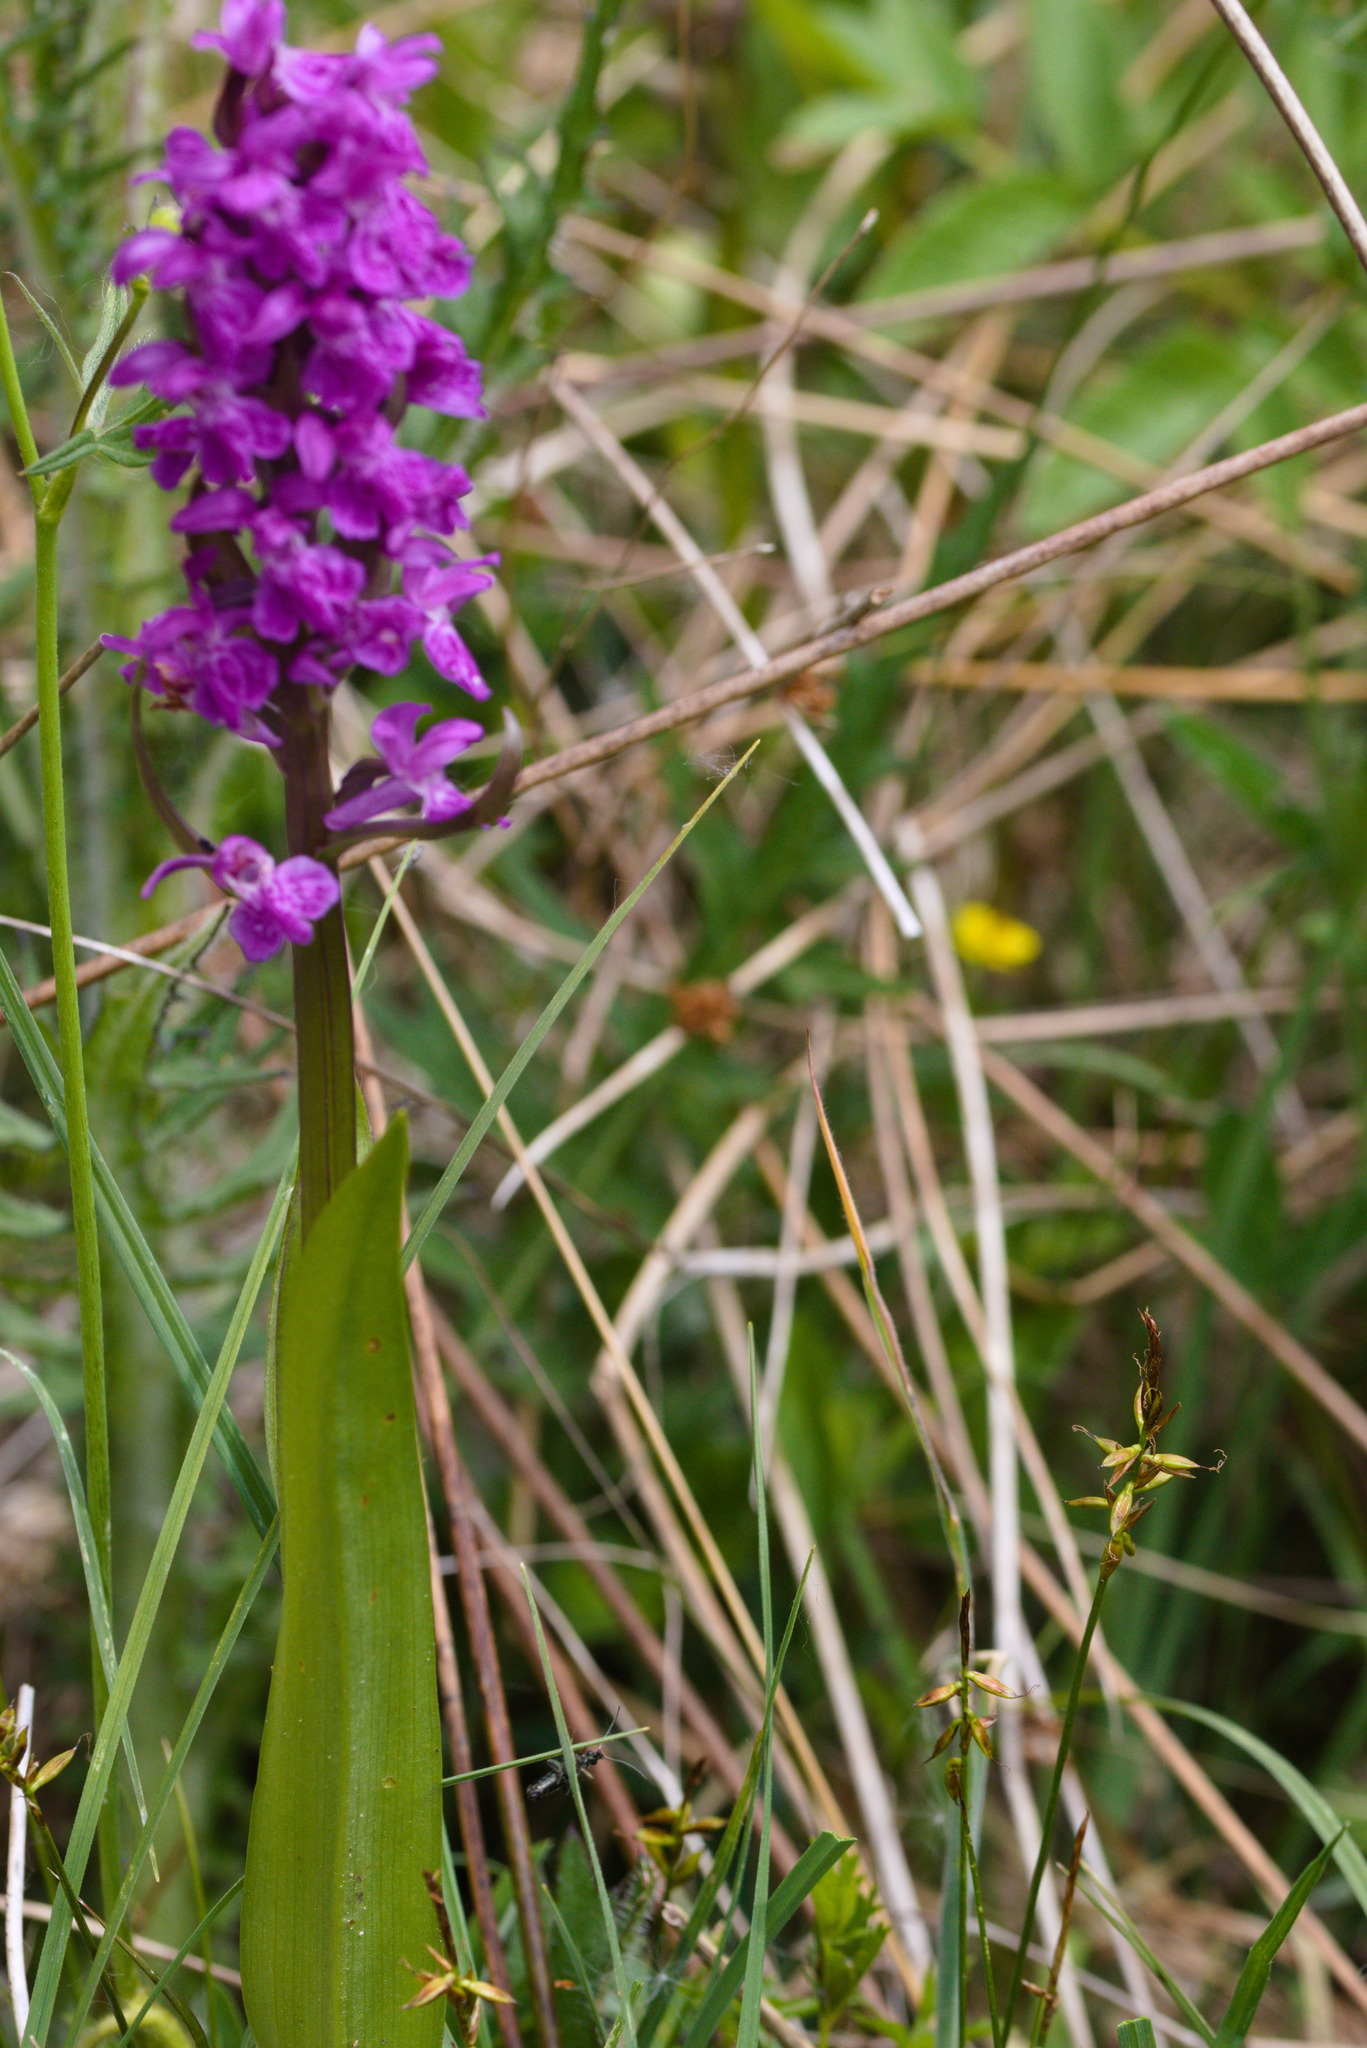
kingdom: Plantae
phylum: Tracheophyta
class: Liliopsida
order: Poales
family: Cyperaceae
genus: Carex
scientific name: Carex pulicaris
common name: Flea sedge
